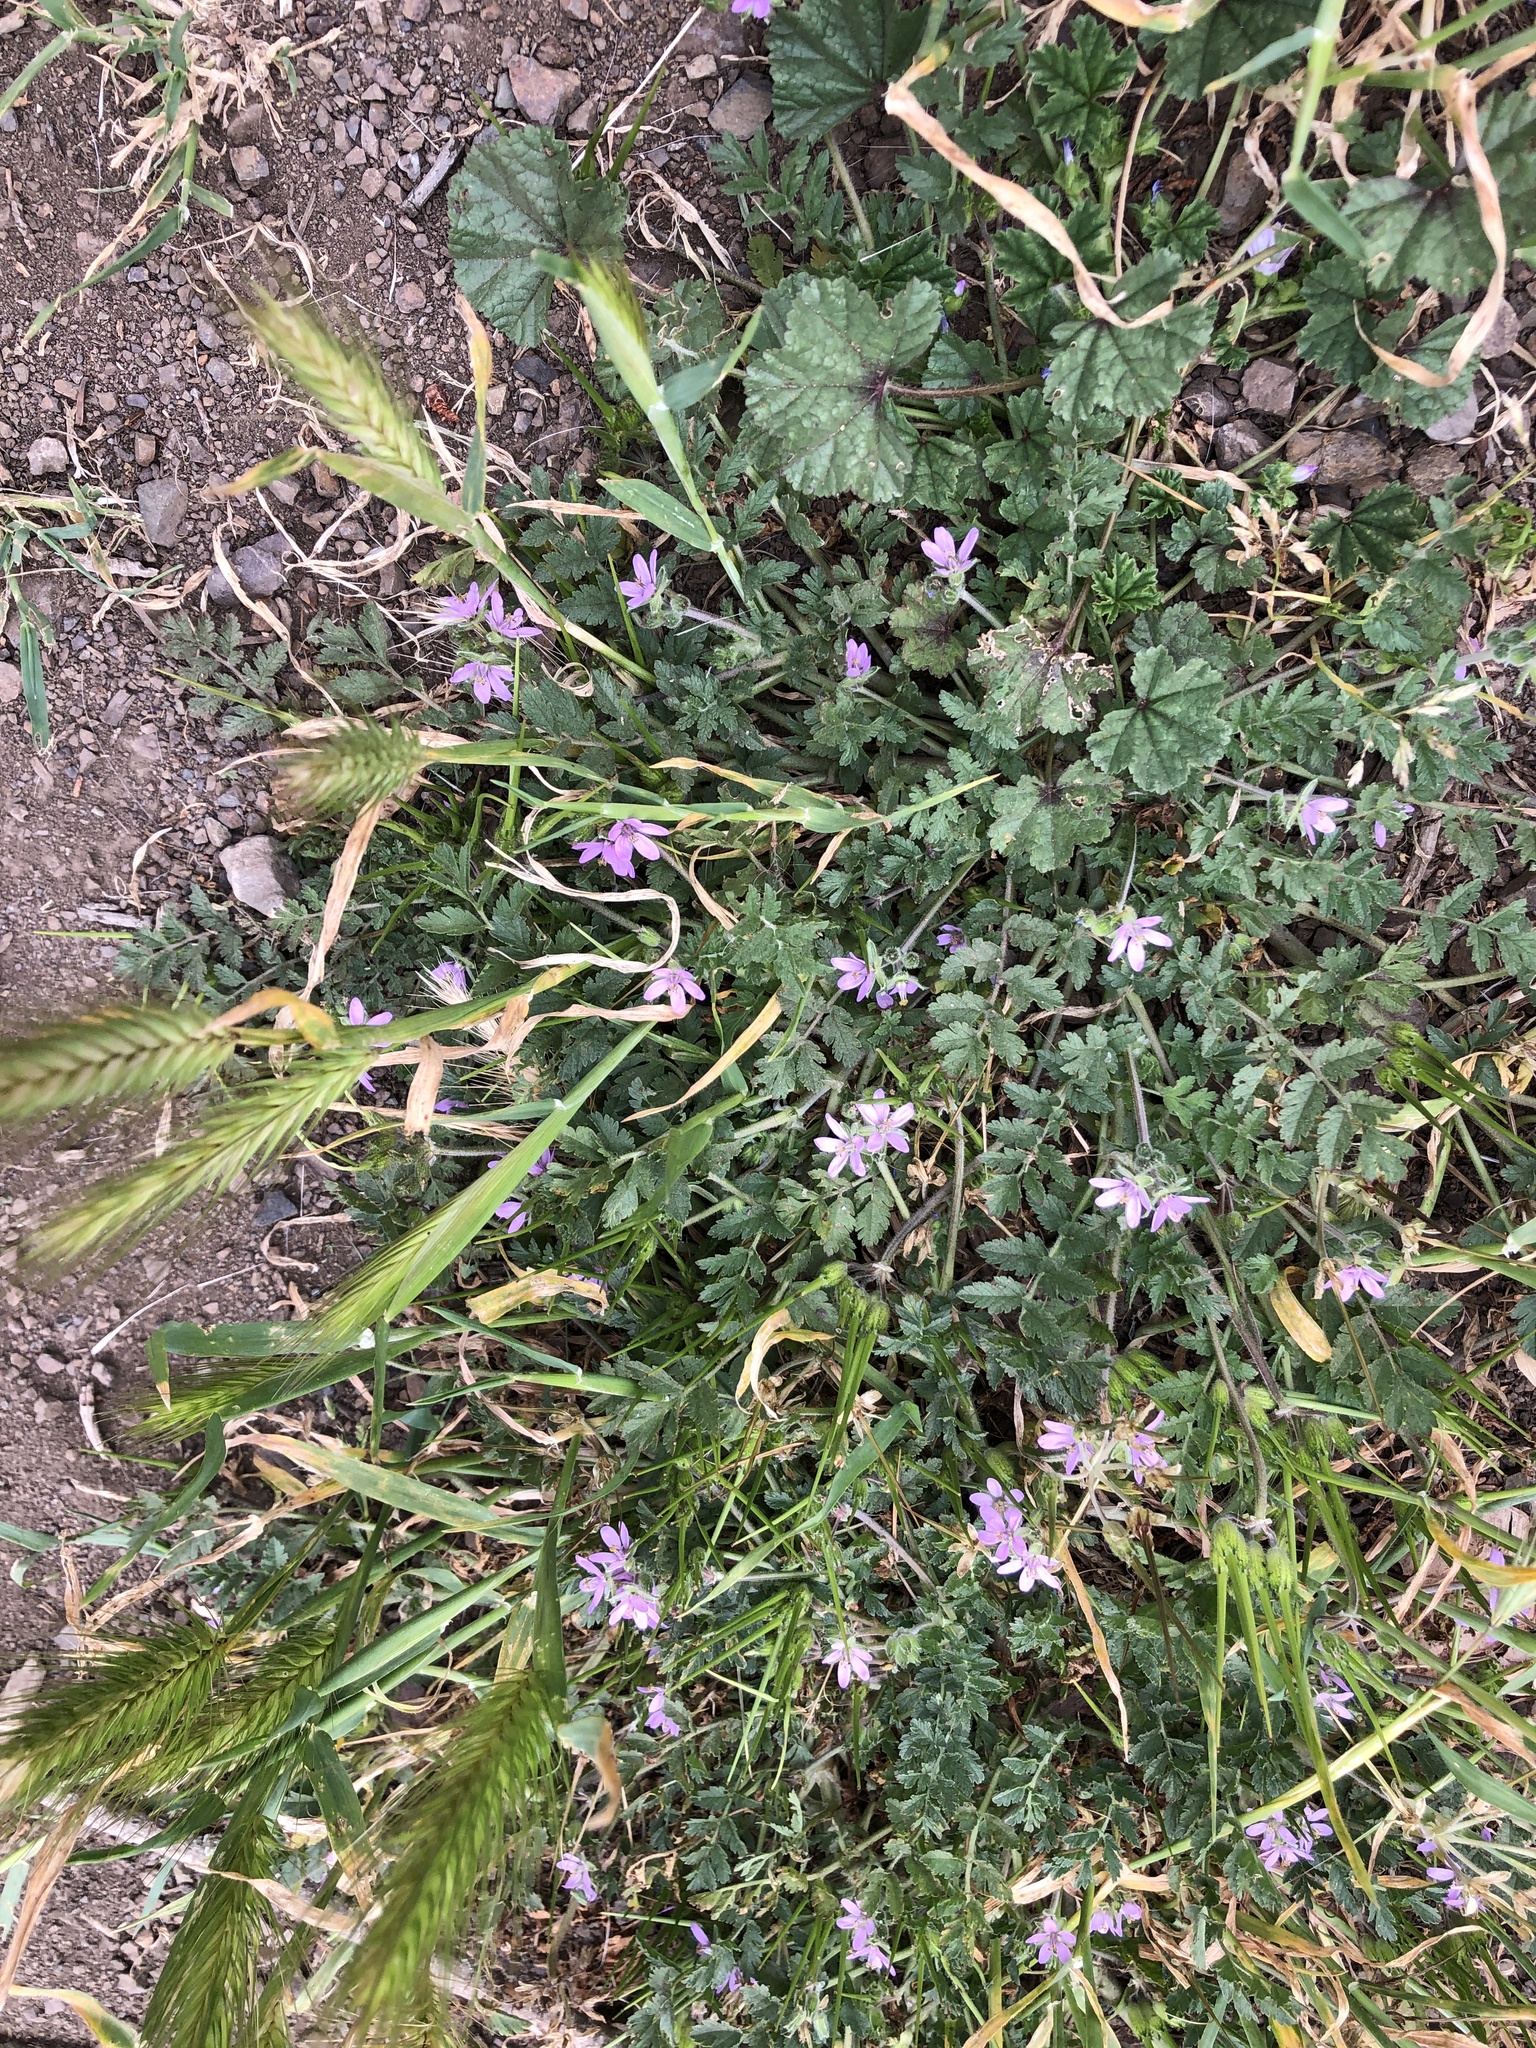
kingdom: Plantae
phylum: Tracheophyta
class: Magnoliopsida
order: Geraniales
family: Geraniaceae
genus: Erodium
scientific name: Erodium moschatum
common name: Musk stork's-bill
